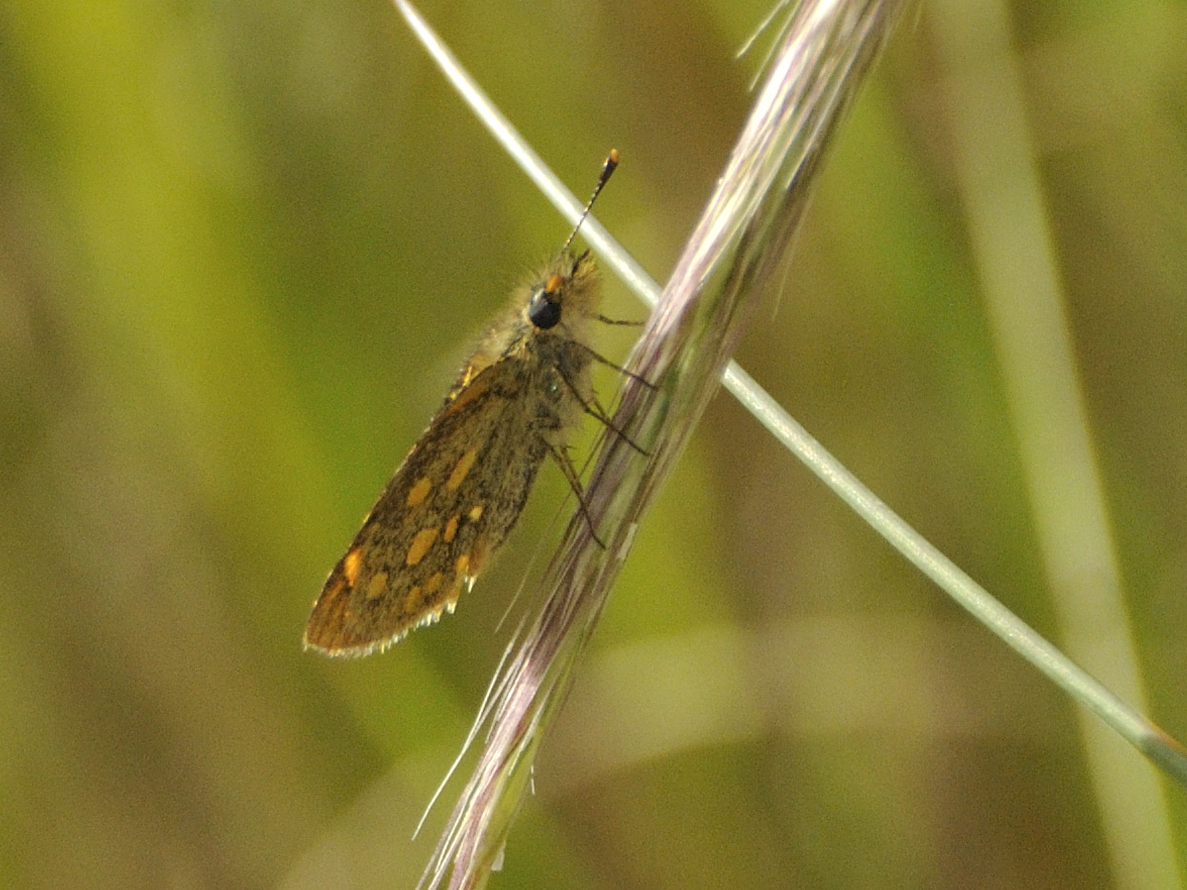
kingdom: Animalia
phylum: Arthropoda
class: Insecta
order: Lepidoptera
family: Hesperiidae
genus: Metisella
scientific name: Metisella malgacha
